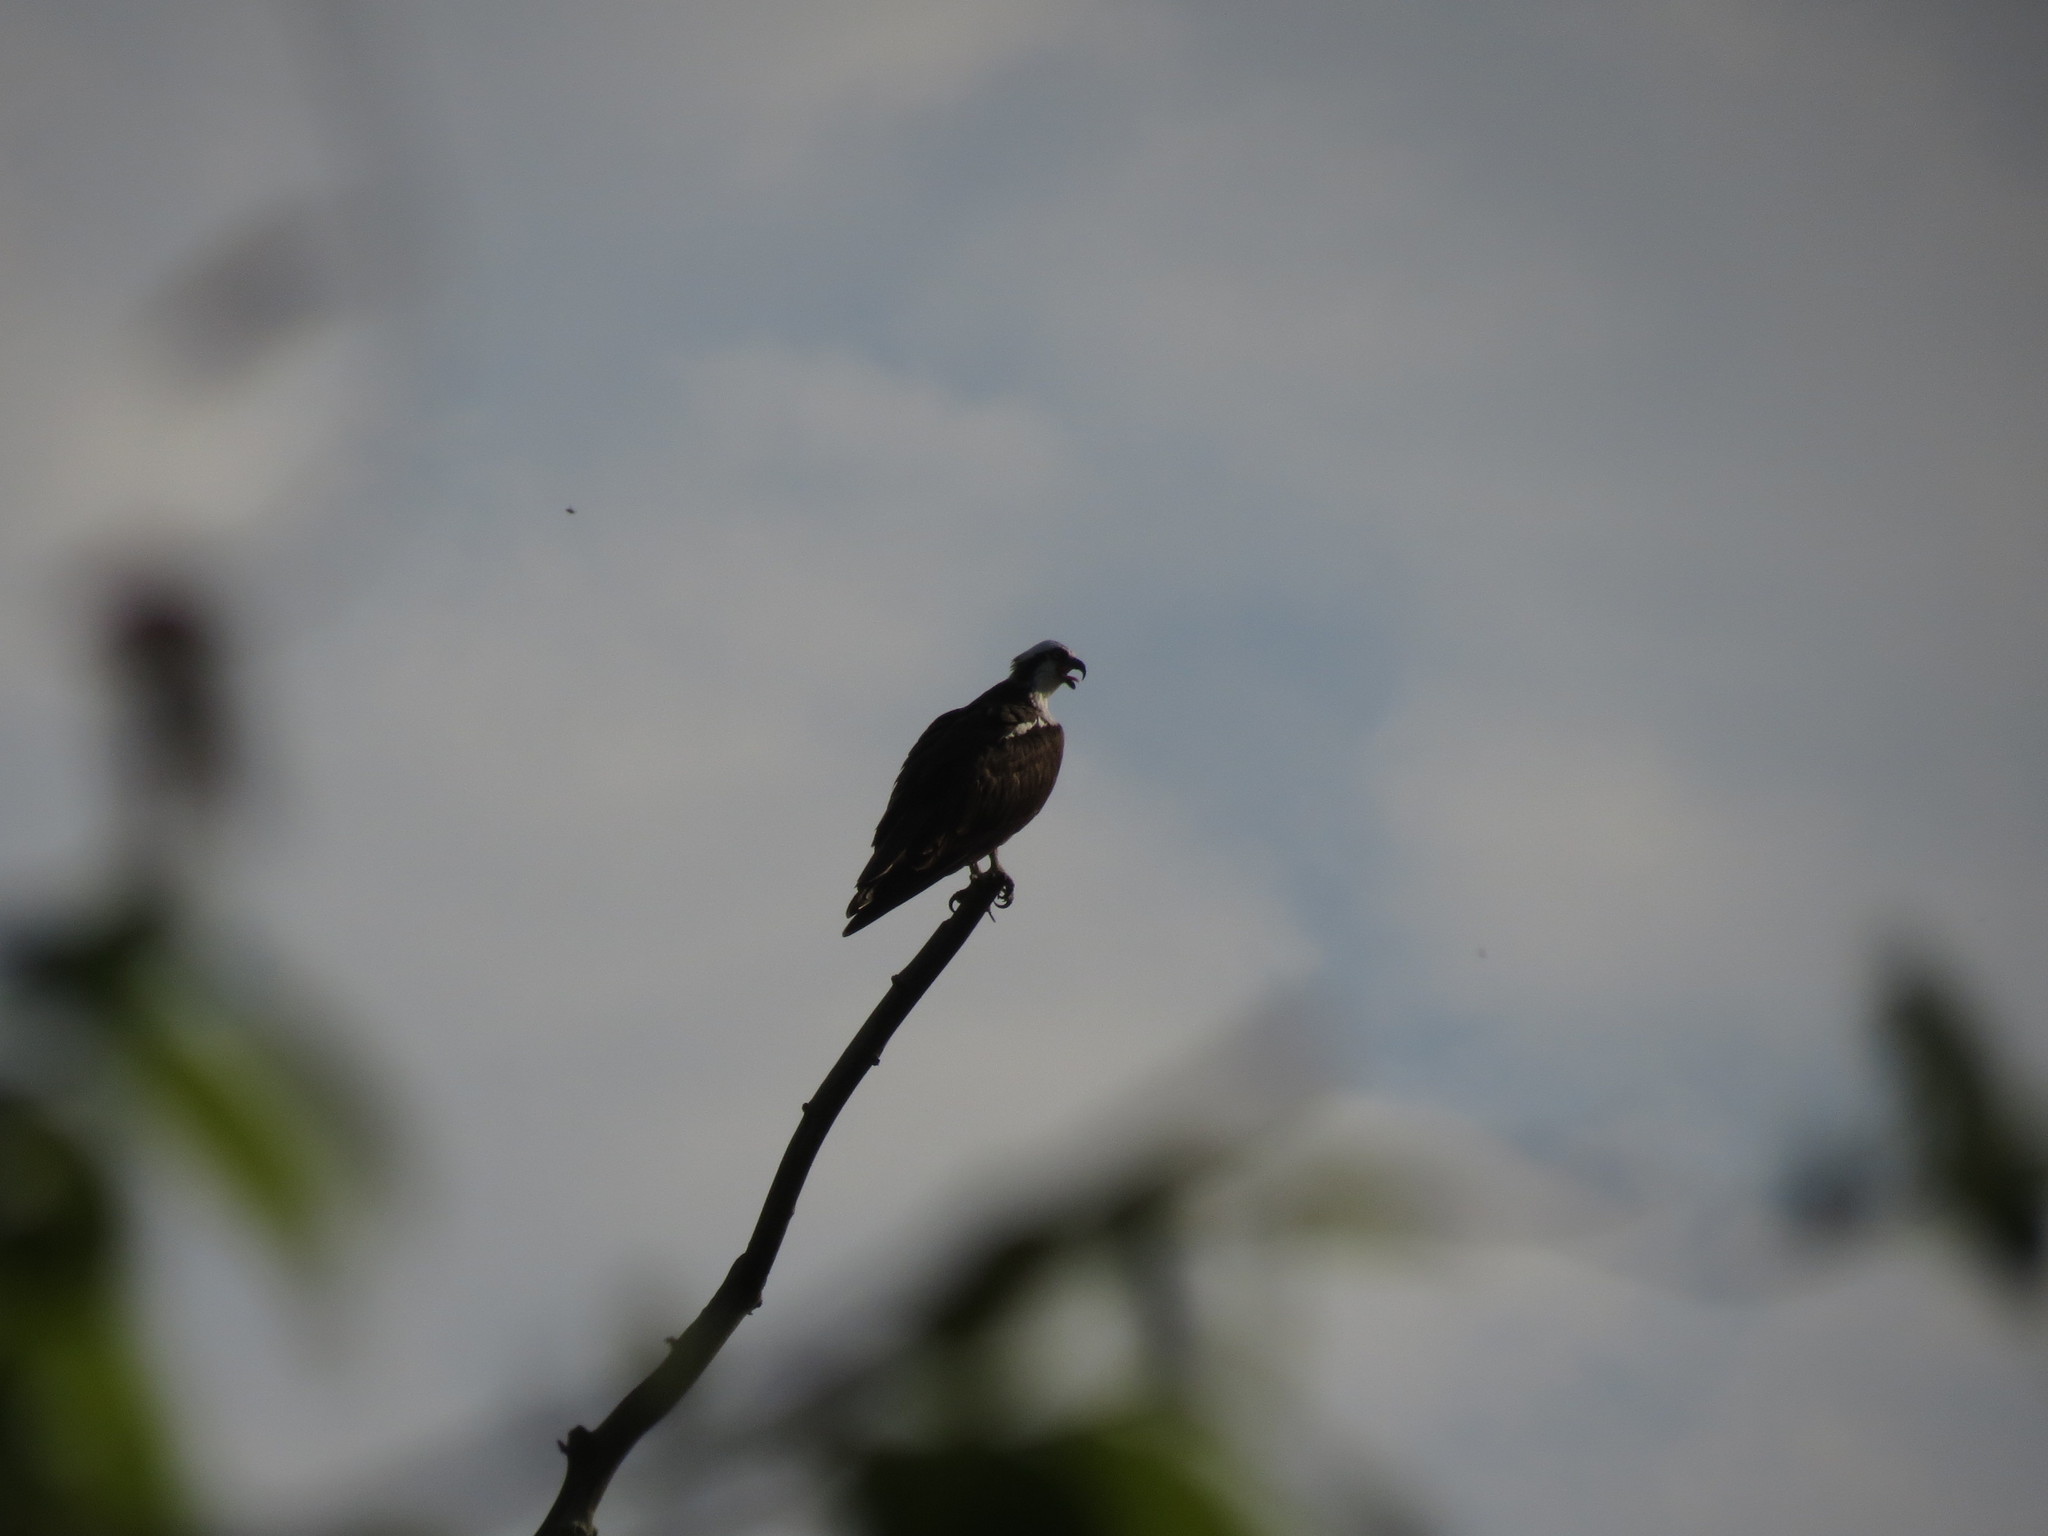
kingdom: Animalia
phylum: Chordata
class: Aves
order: Accipitriformes
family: Pandionidae
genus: Pandion
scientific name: Pandion haliaetus
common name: Osprey
